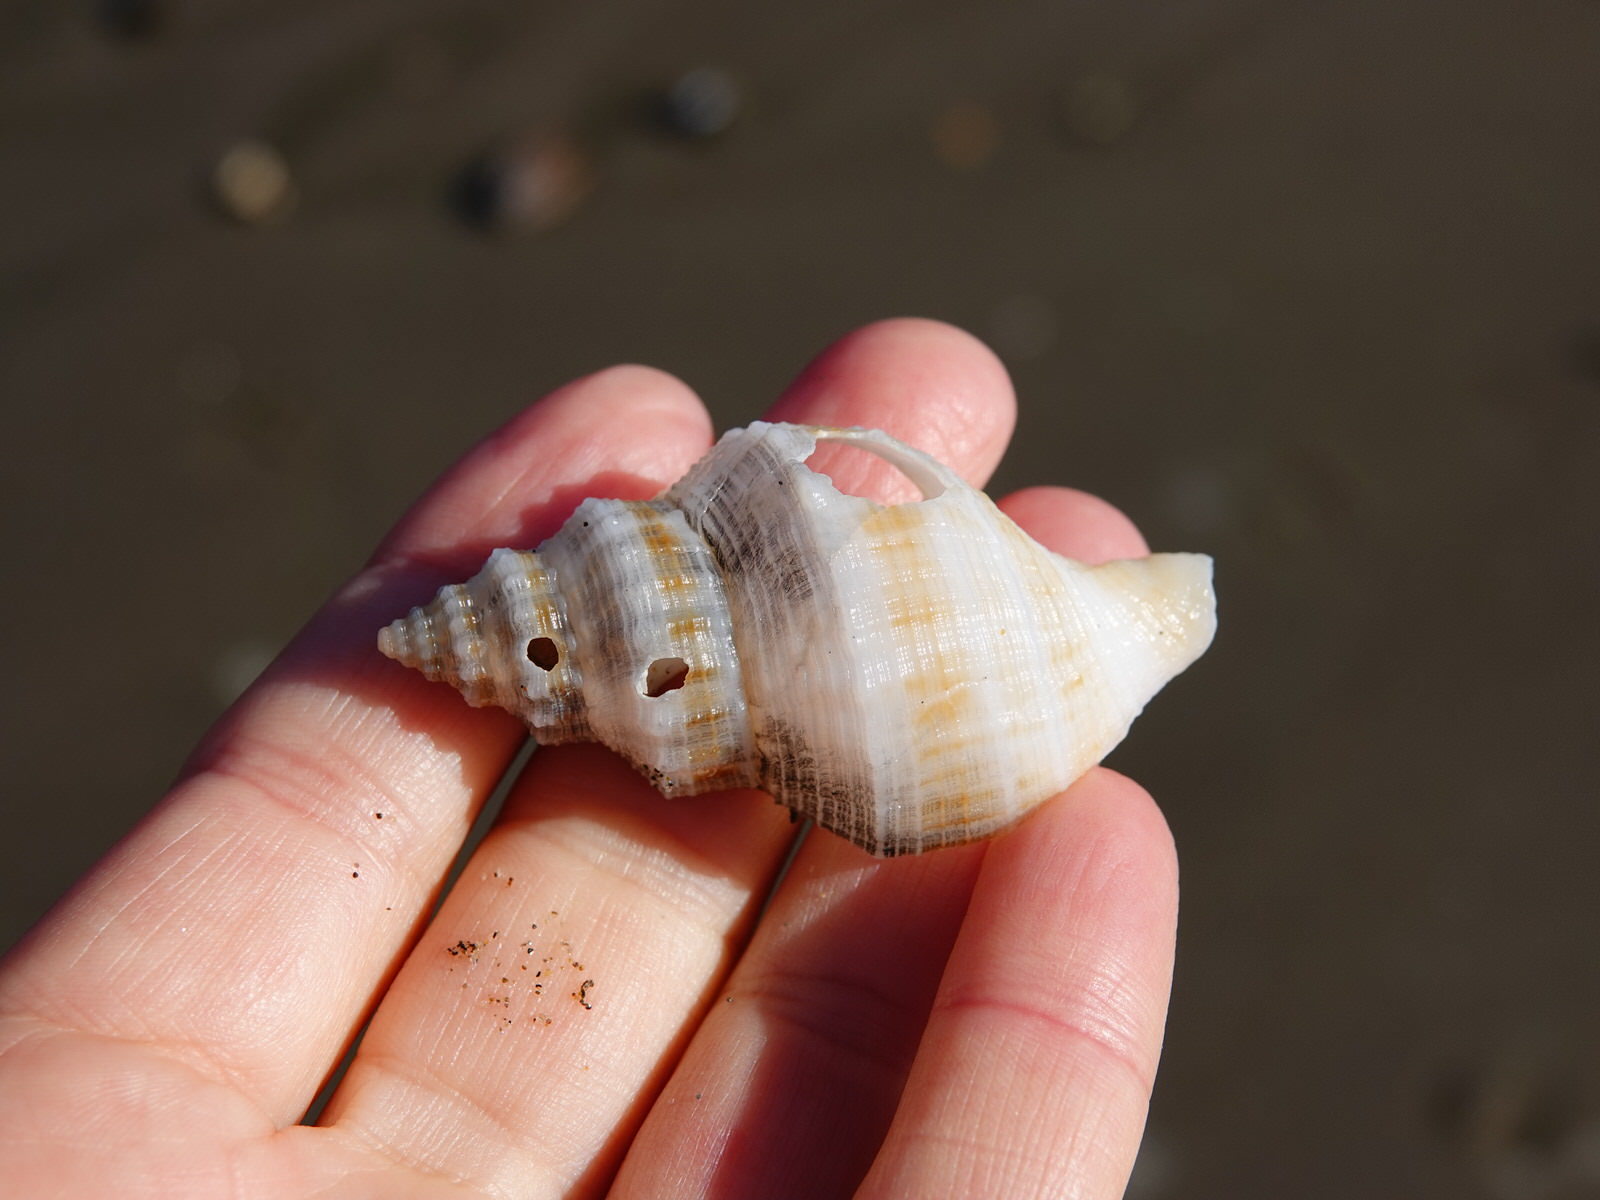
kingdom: Animalia
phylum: Mollusca
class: Gastropoda
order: Neogastropoda
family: Prosiphonidae
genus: Austrofusus
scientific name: Austrofusus glans
